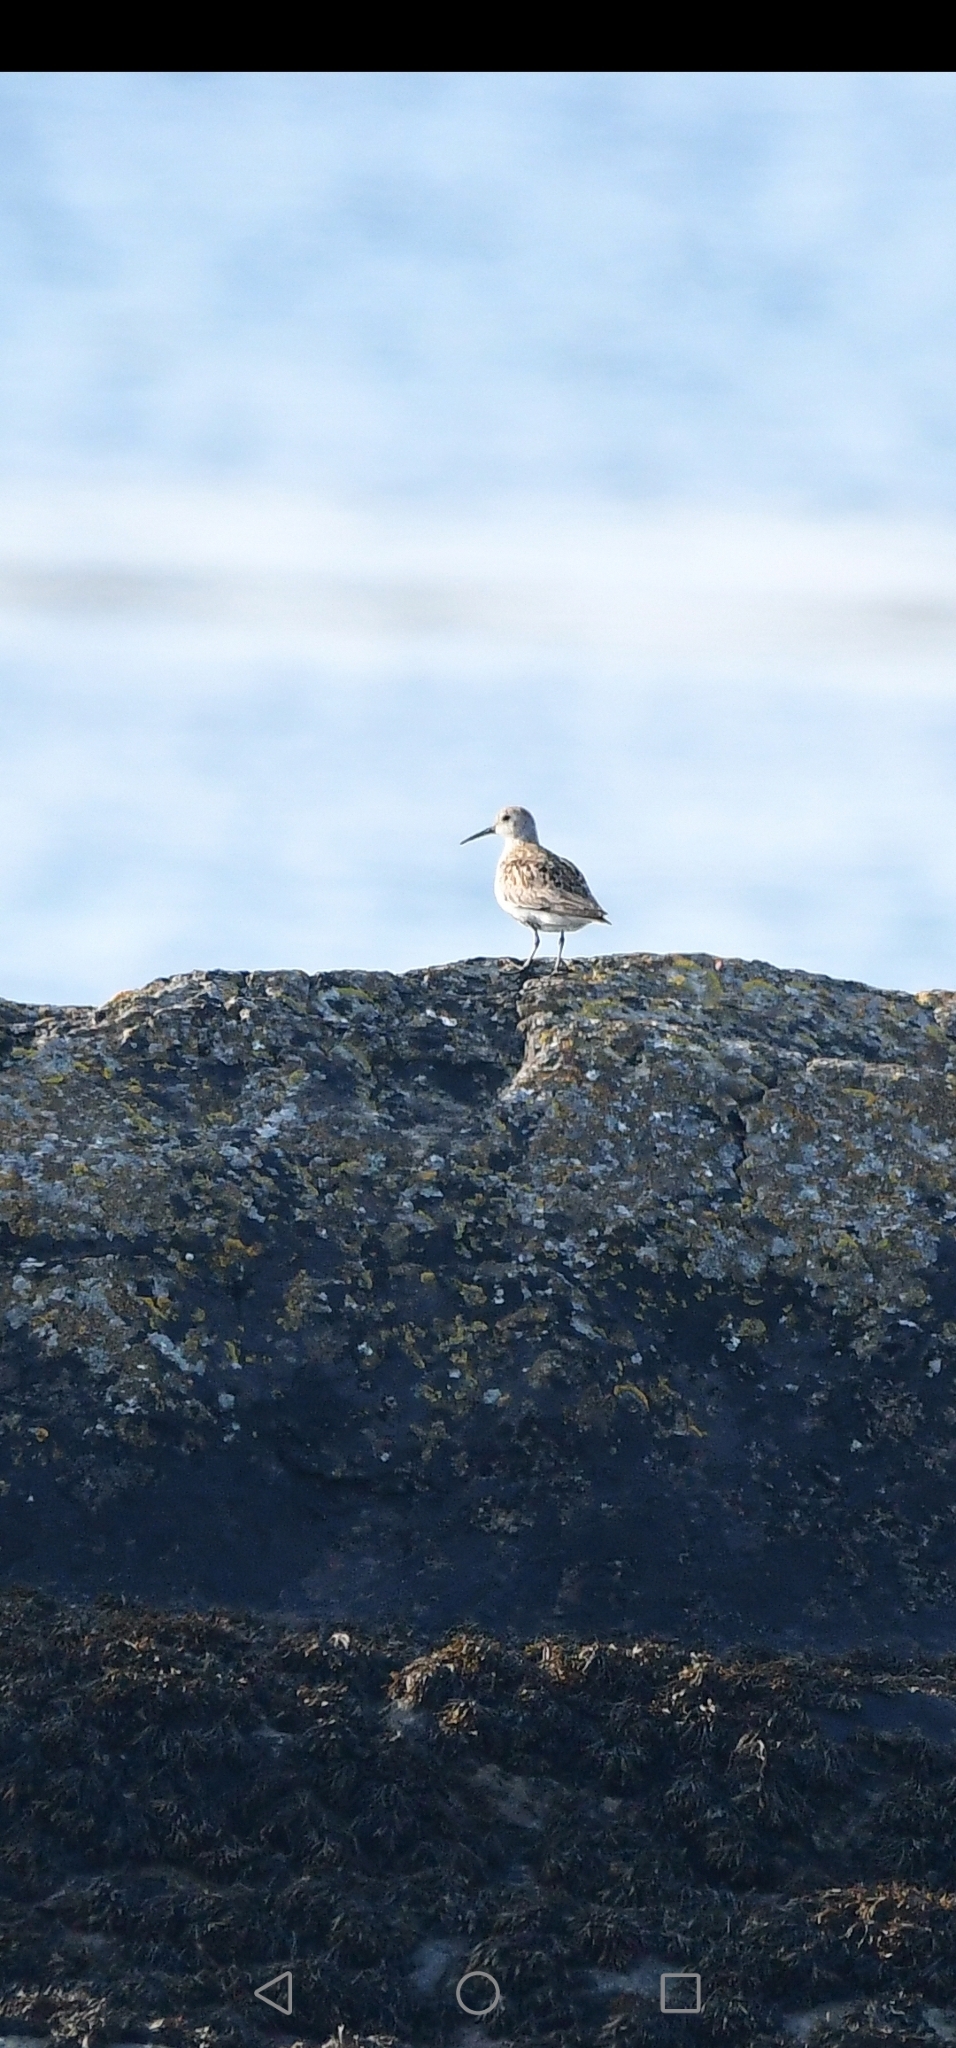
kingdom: Animalia
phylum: Chordata
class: Aves
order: Charadriiformes
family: Scolopacidae
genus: Calidris
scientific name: Calidris alpina
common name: Dunlin
